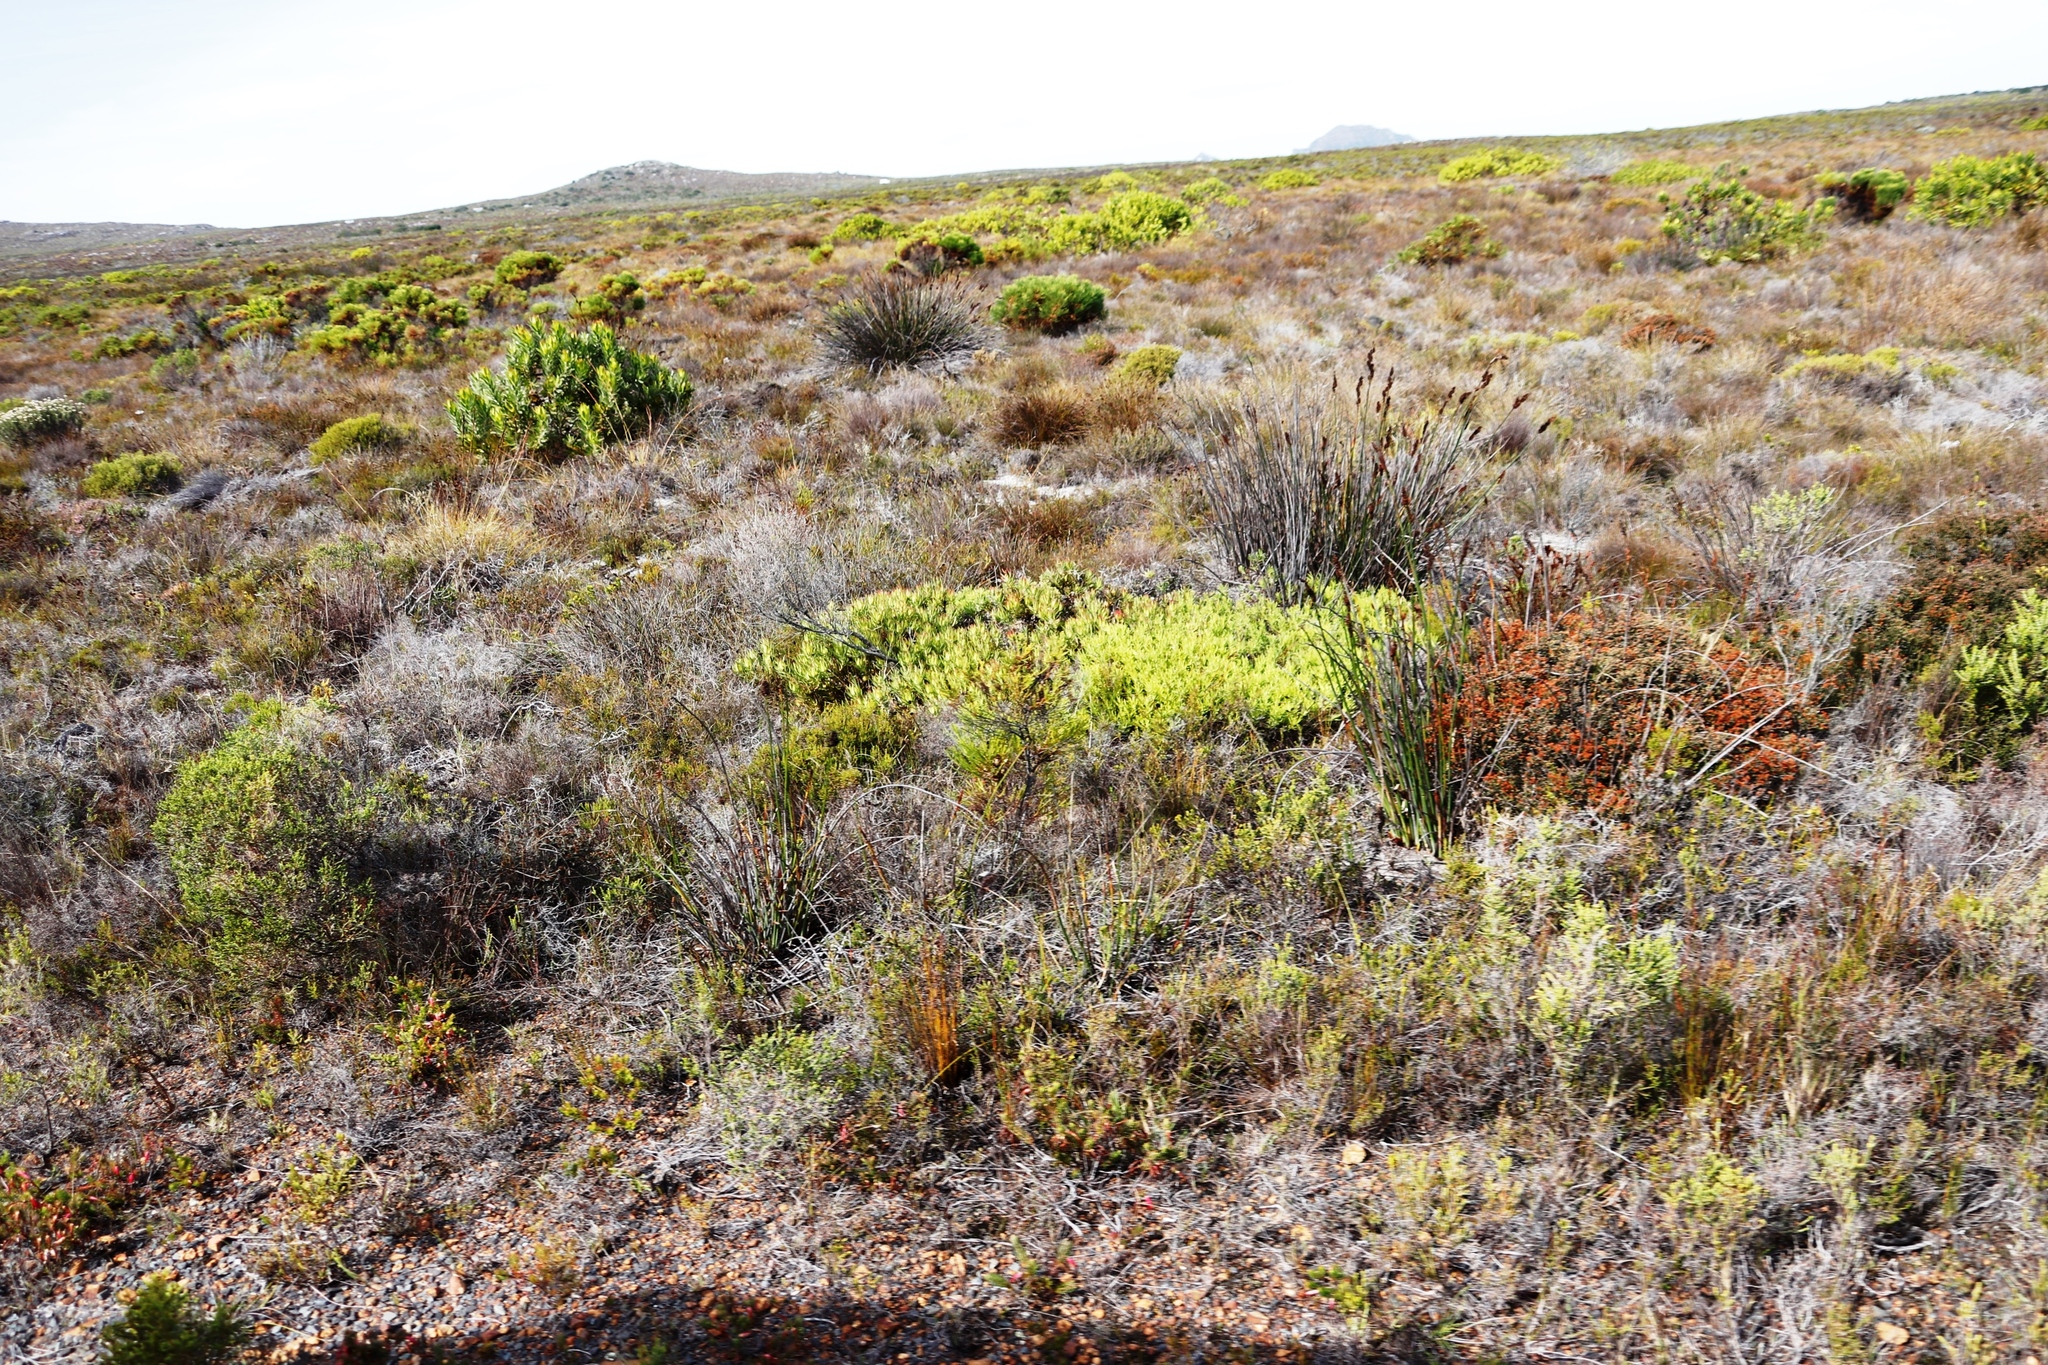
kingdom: Plantae
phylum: Tracheophyta
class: Magnoliopsida
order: Proteales
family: Proteaceae
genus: Leucadendron
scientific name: Leucadendron salignum
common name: Common sunshine conebush
